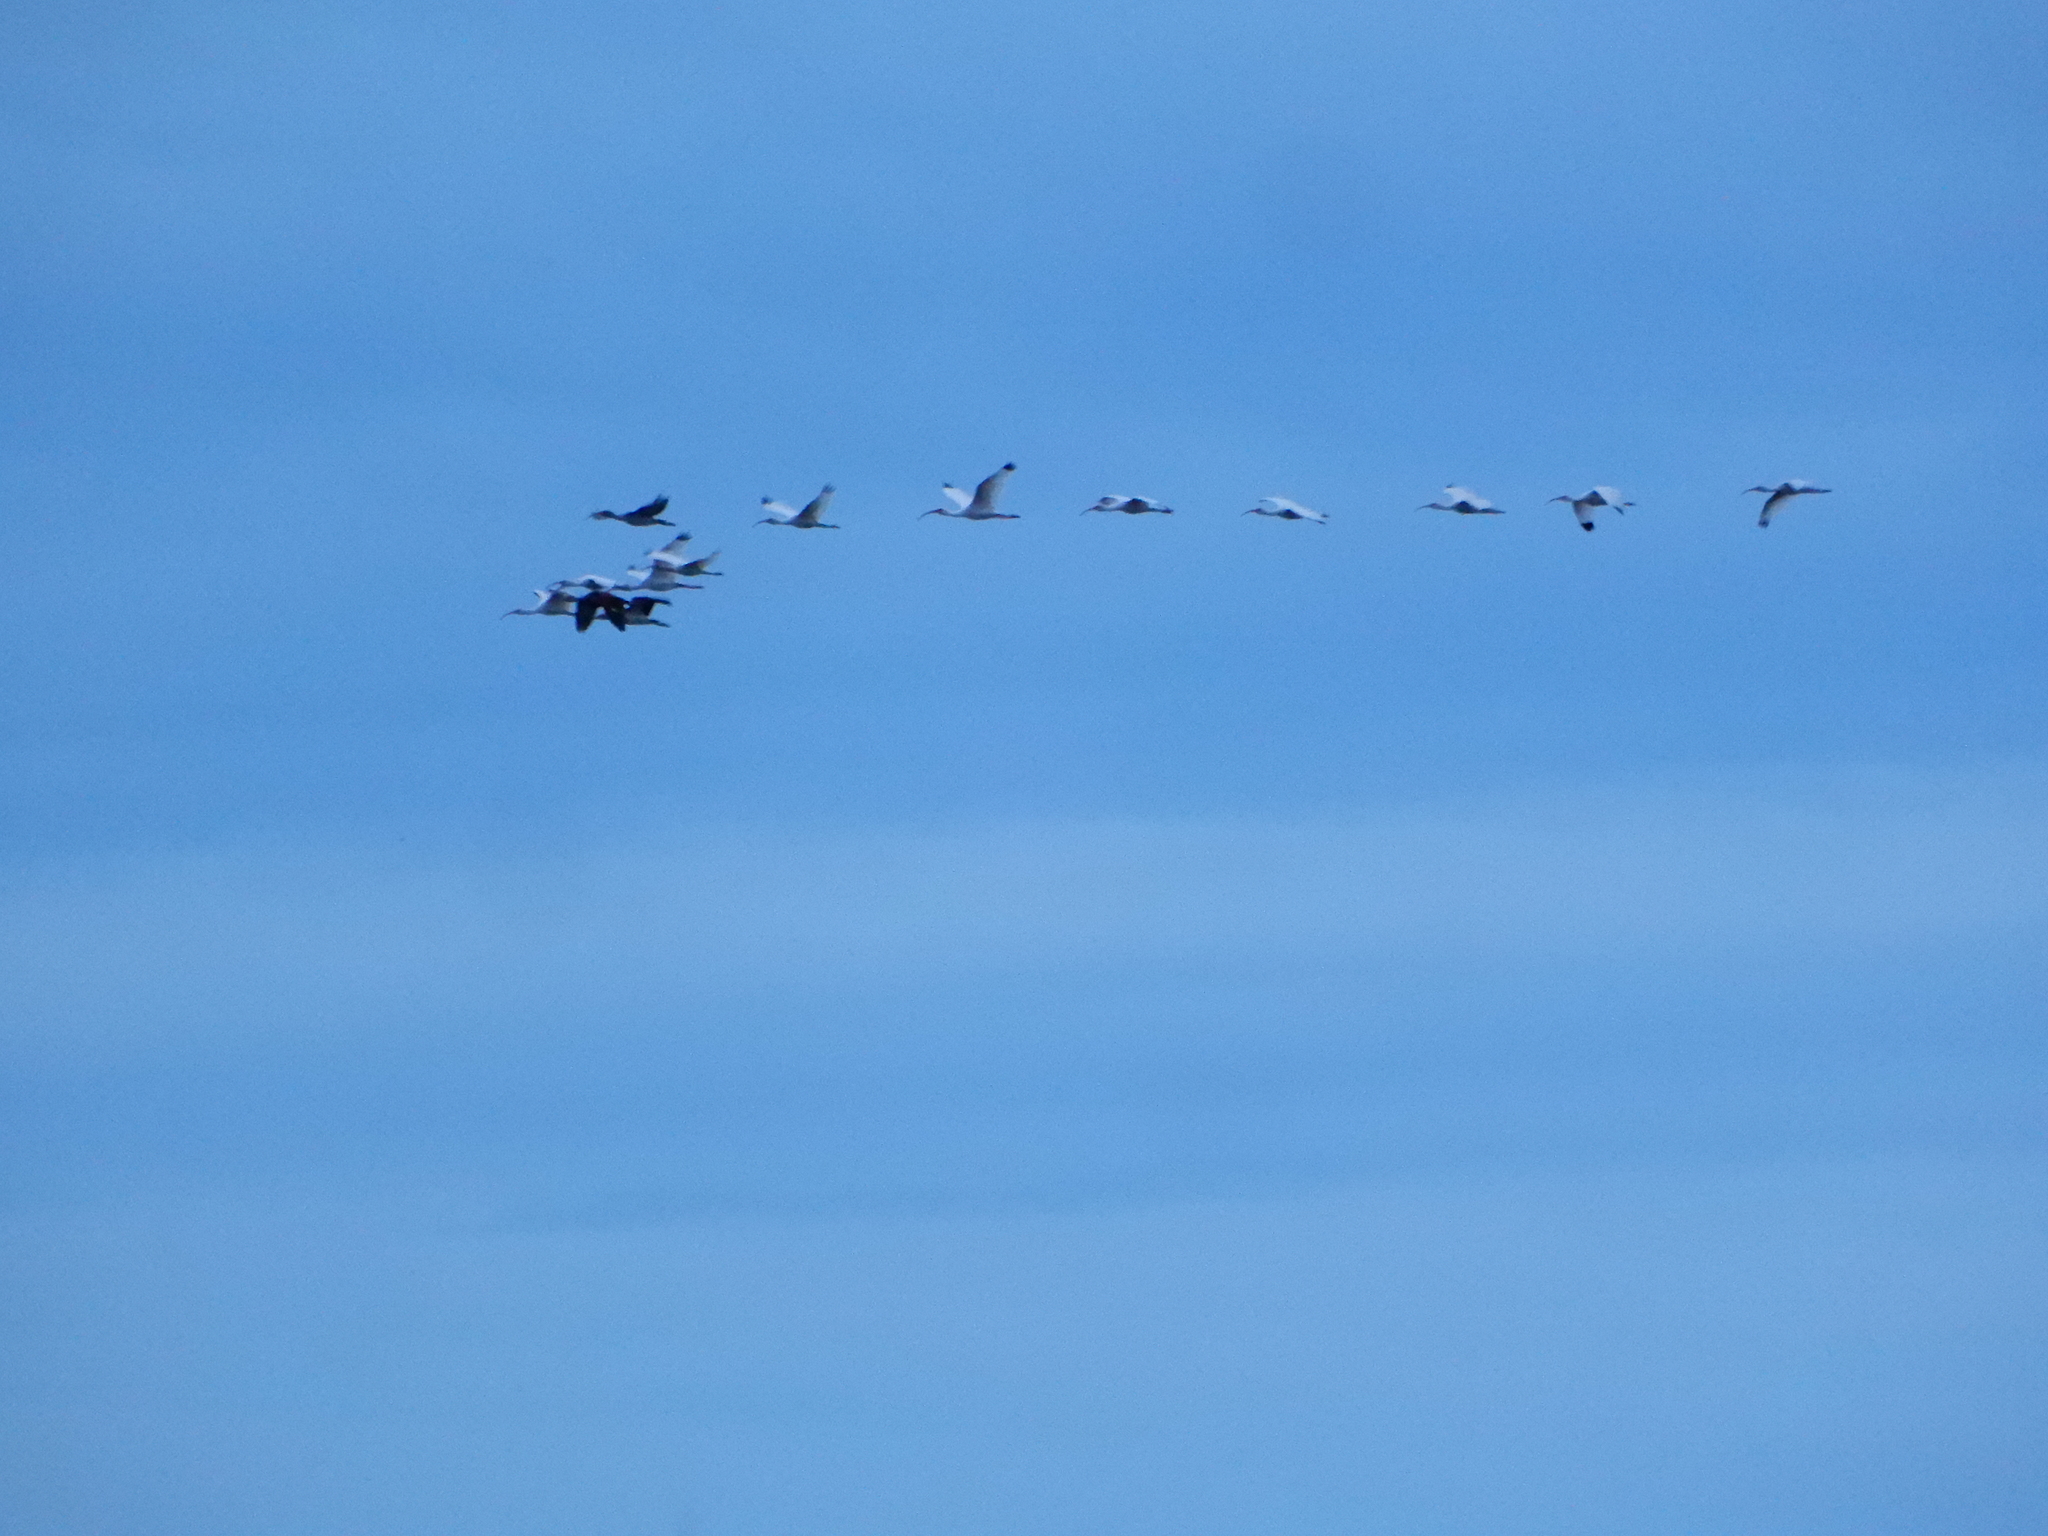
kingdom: Animalia
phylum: Chordata
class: Aves
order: Pelecaniformes
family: Threskiornithidae
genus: Eudocimus
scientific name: Eudocimus albus
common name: White ibis
